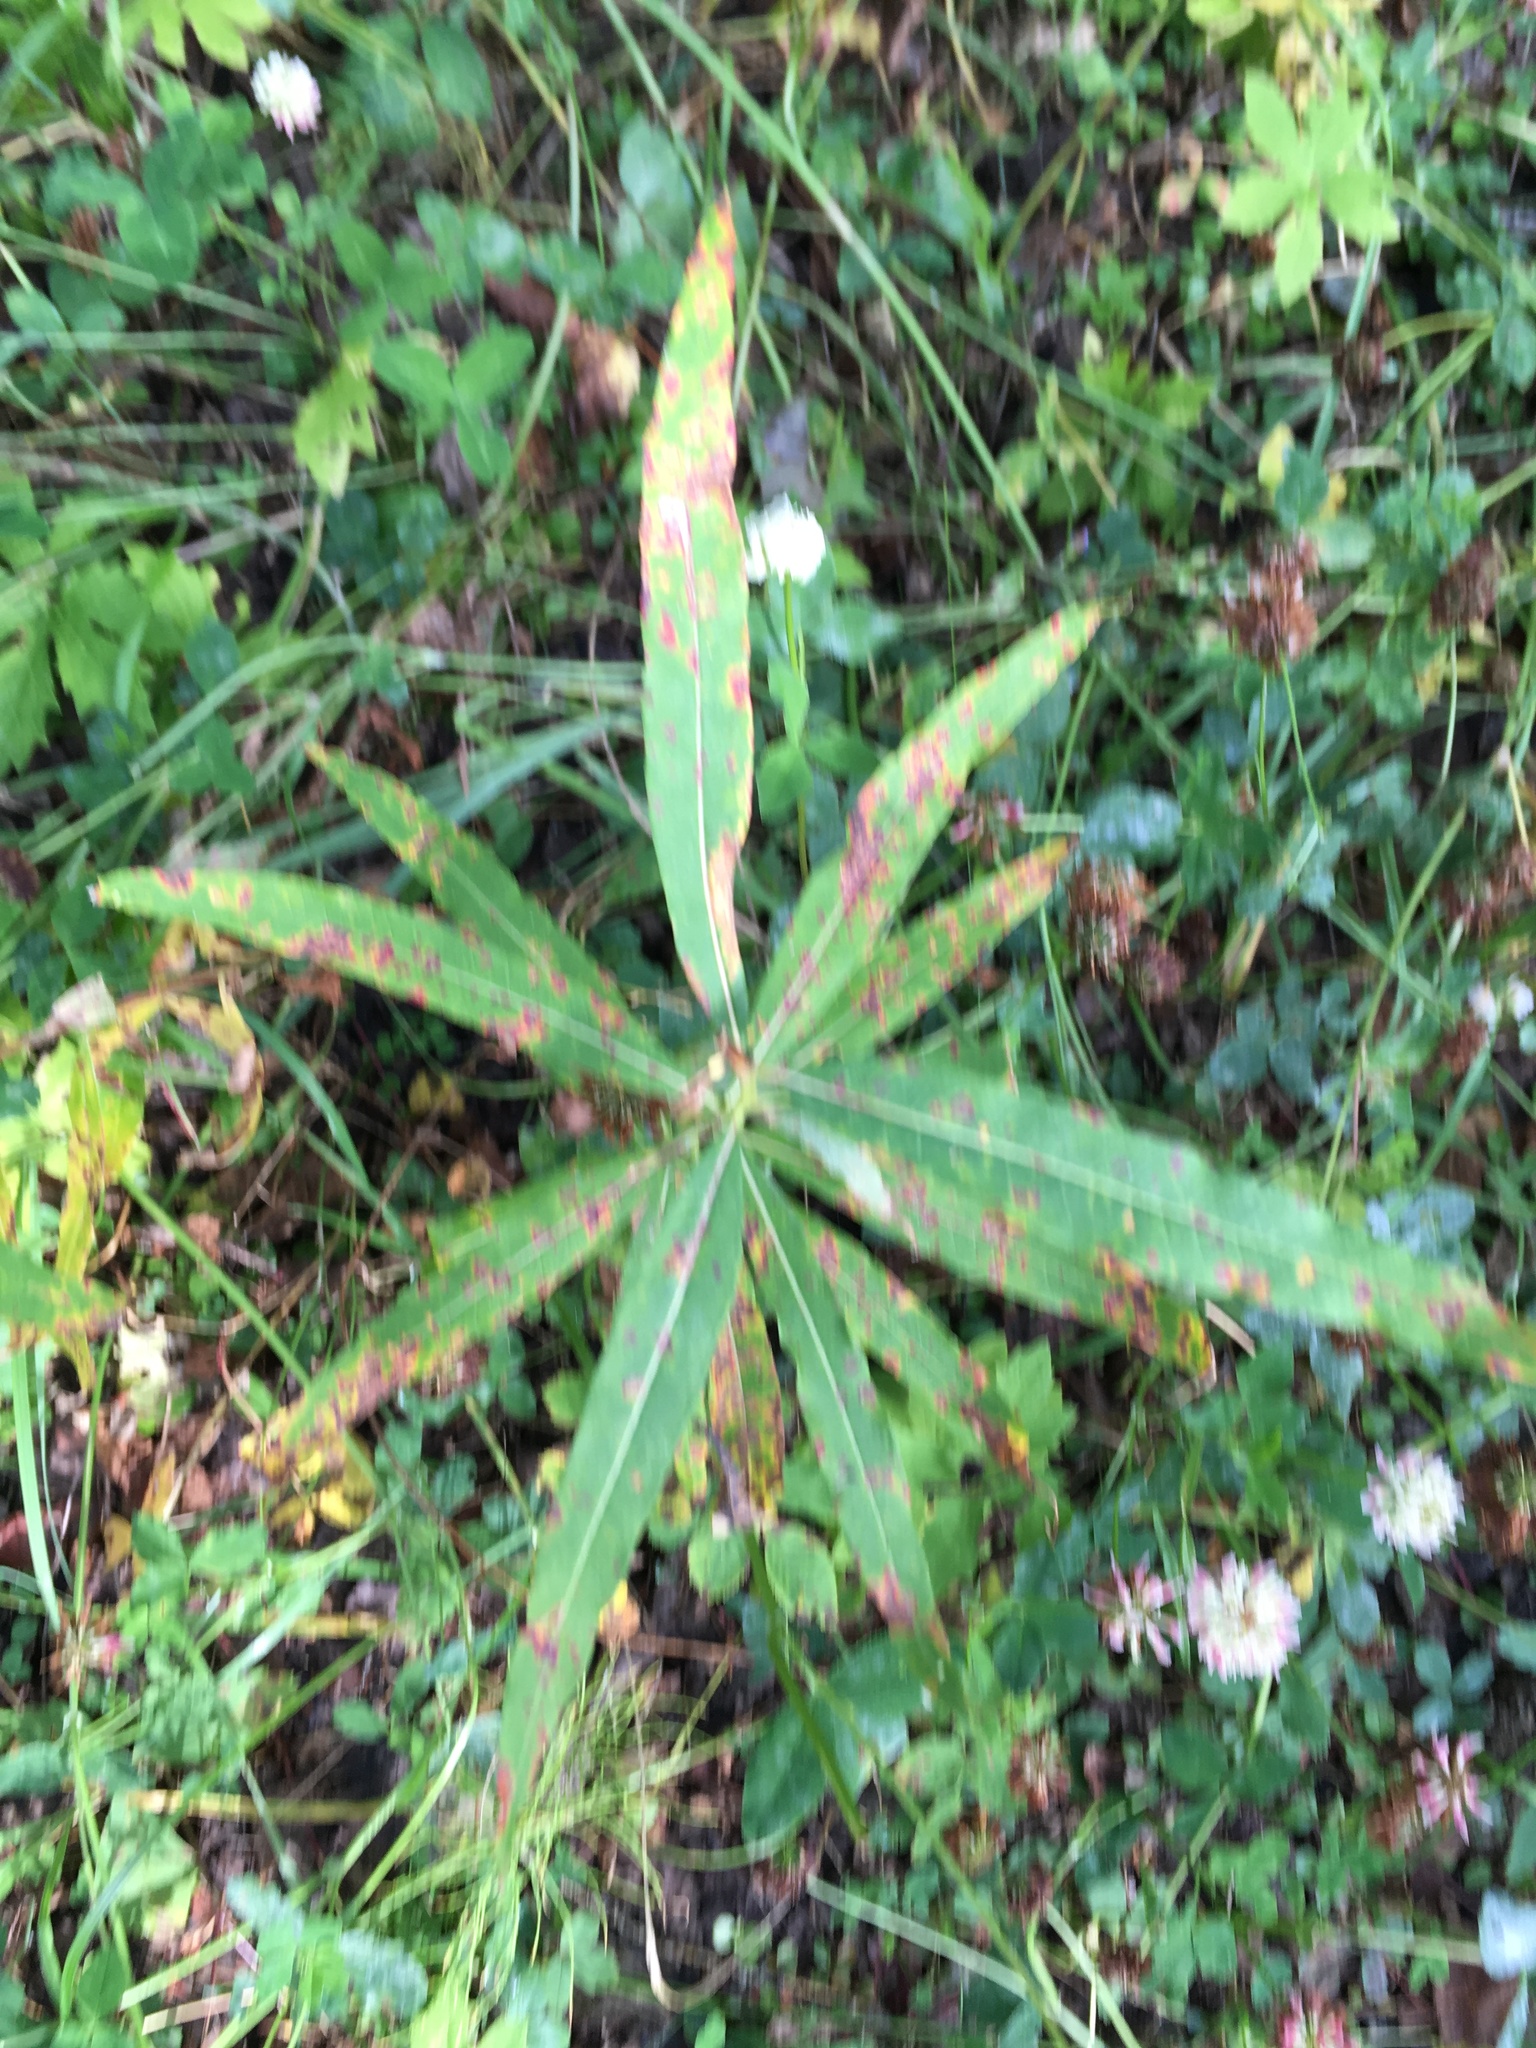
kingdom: Plantae
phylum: Tracheophyta
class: Magnoliopsida
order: Myrtales
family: Onagraceae
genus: Chamaenerion
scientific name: Chamaenerion angustifolium
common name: Fireweed
